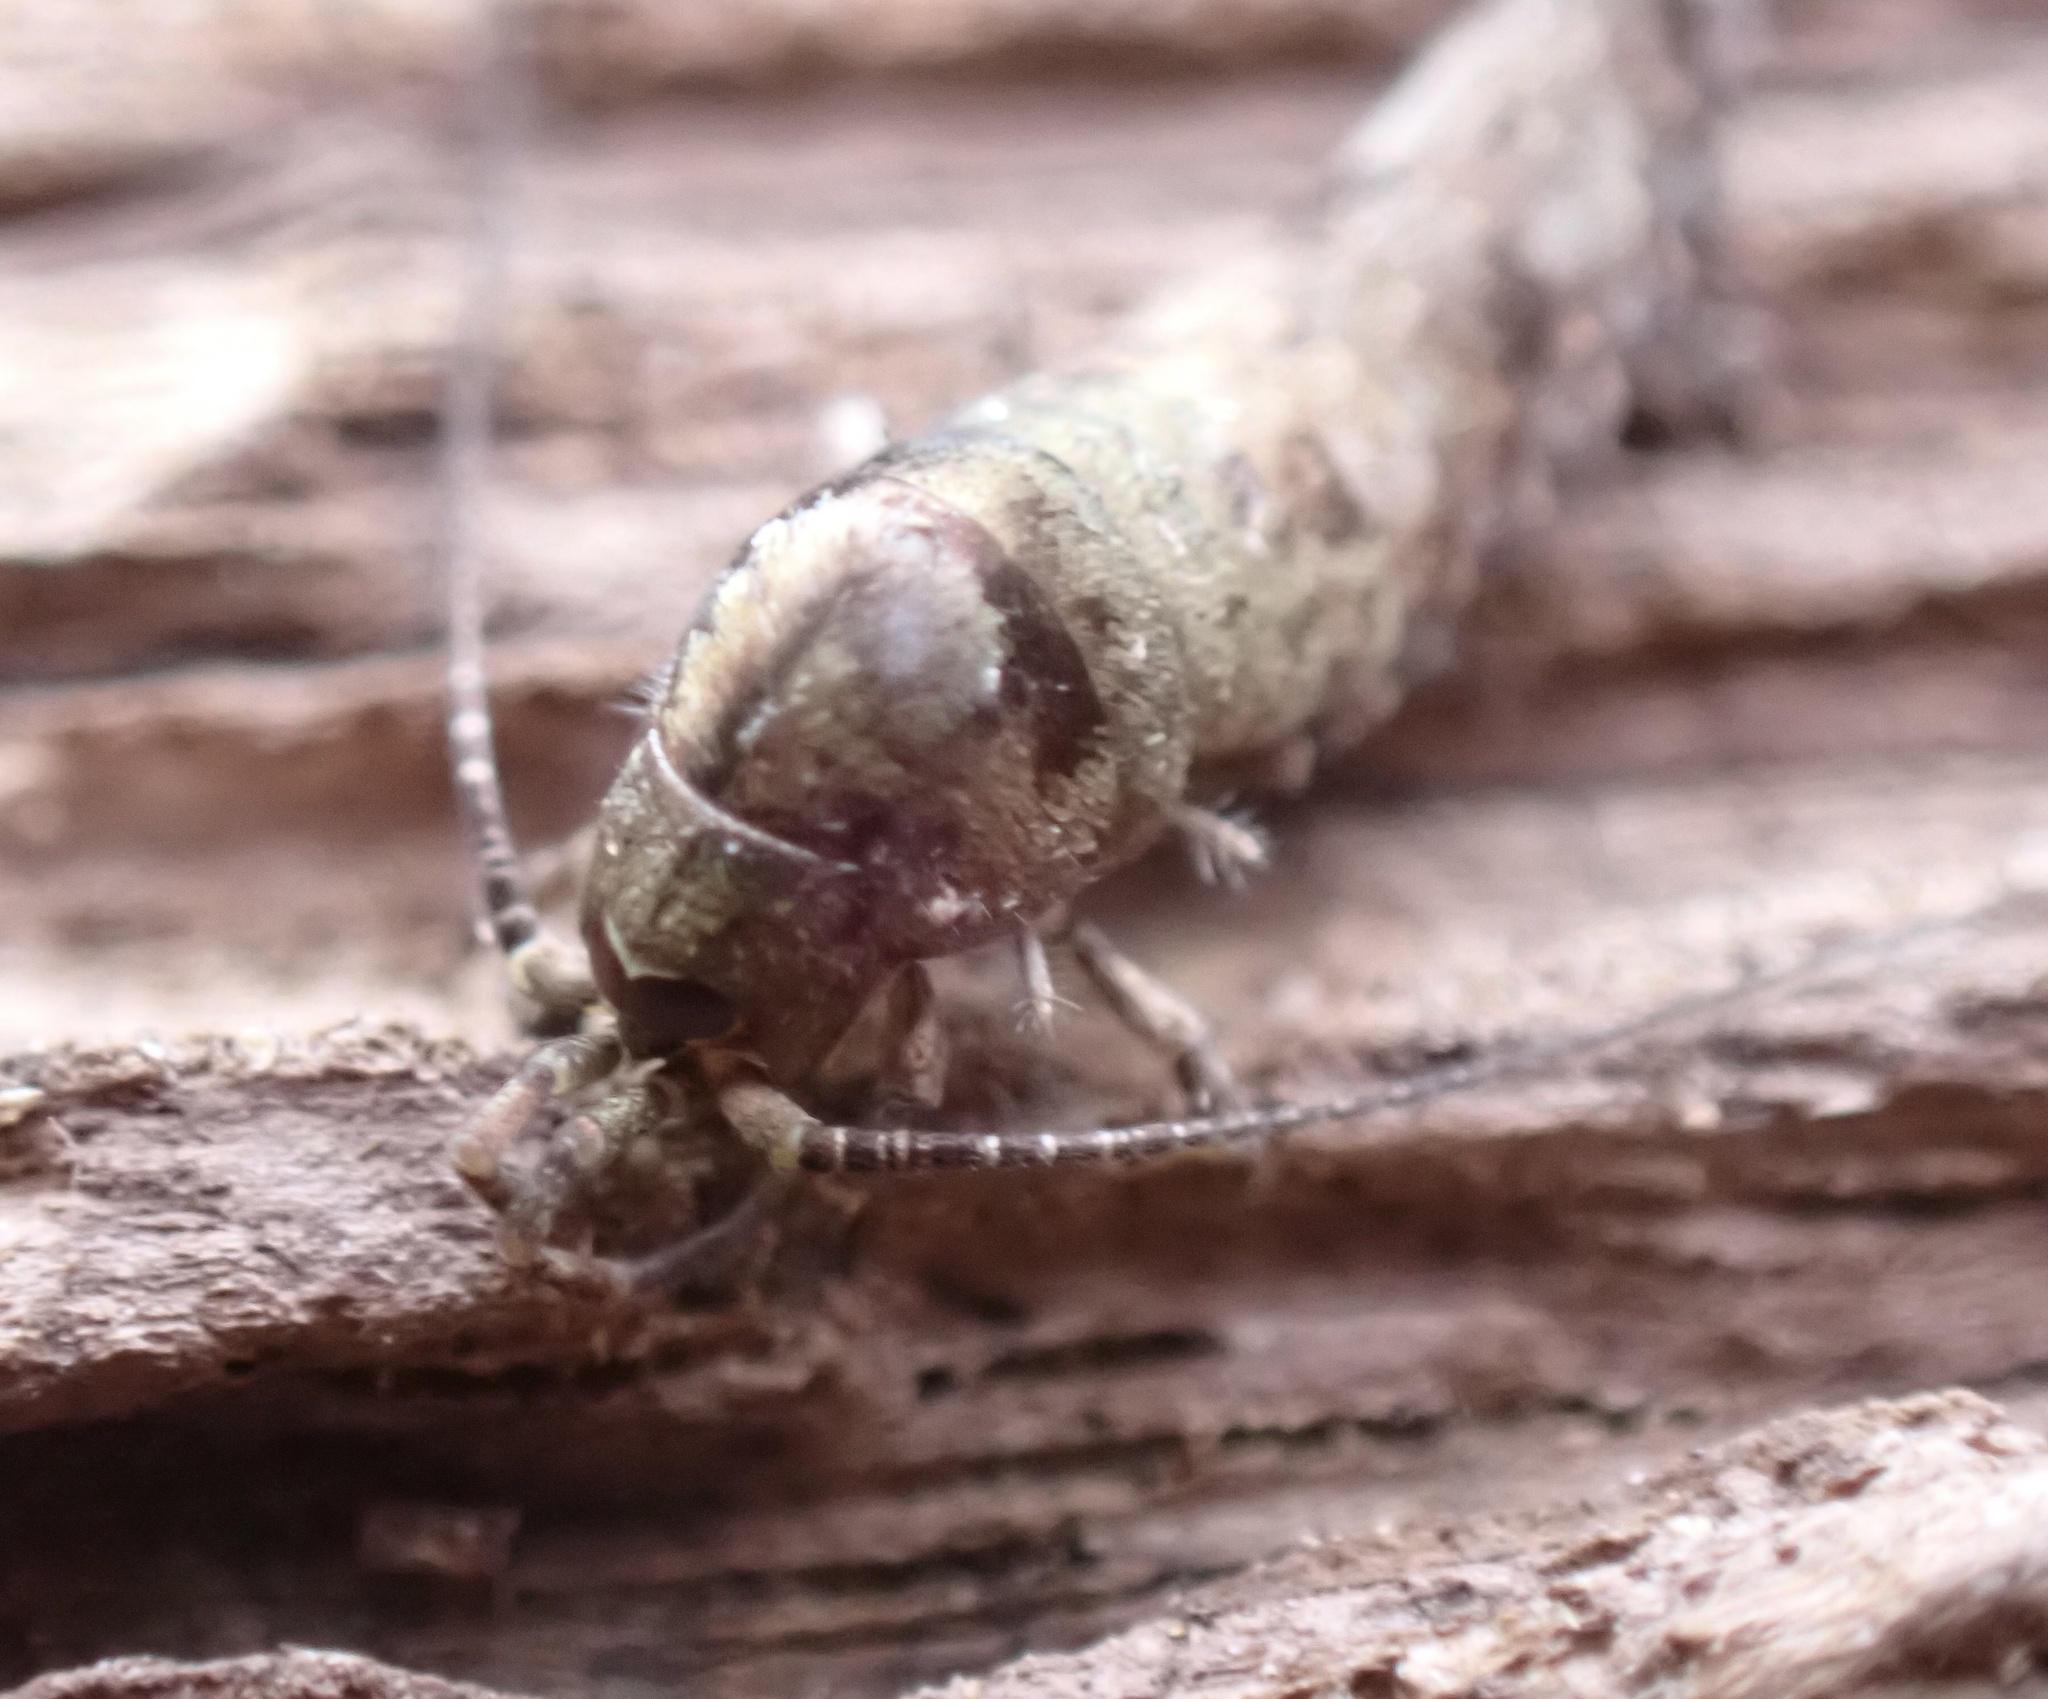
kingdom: Animalia
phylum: Arthropoda
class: Insecta
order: Archaeognatha
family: Machilidae
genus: Trigoniophthalmus
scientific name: Trigoniophthalmus alternatus
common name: Jumping bristletail
